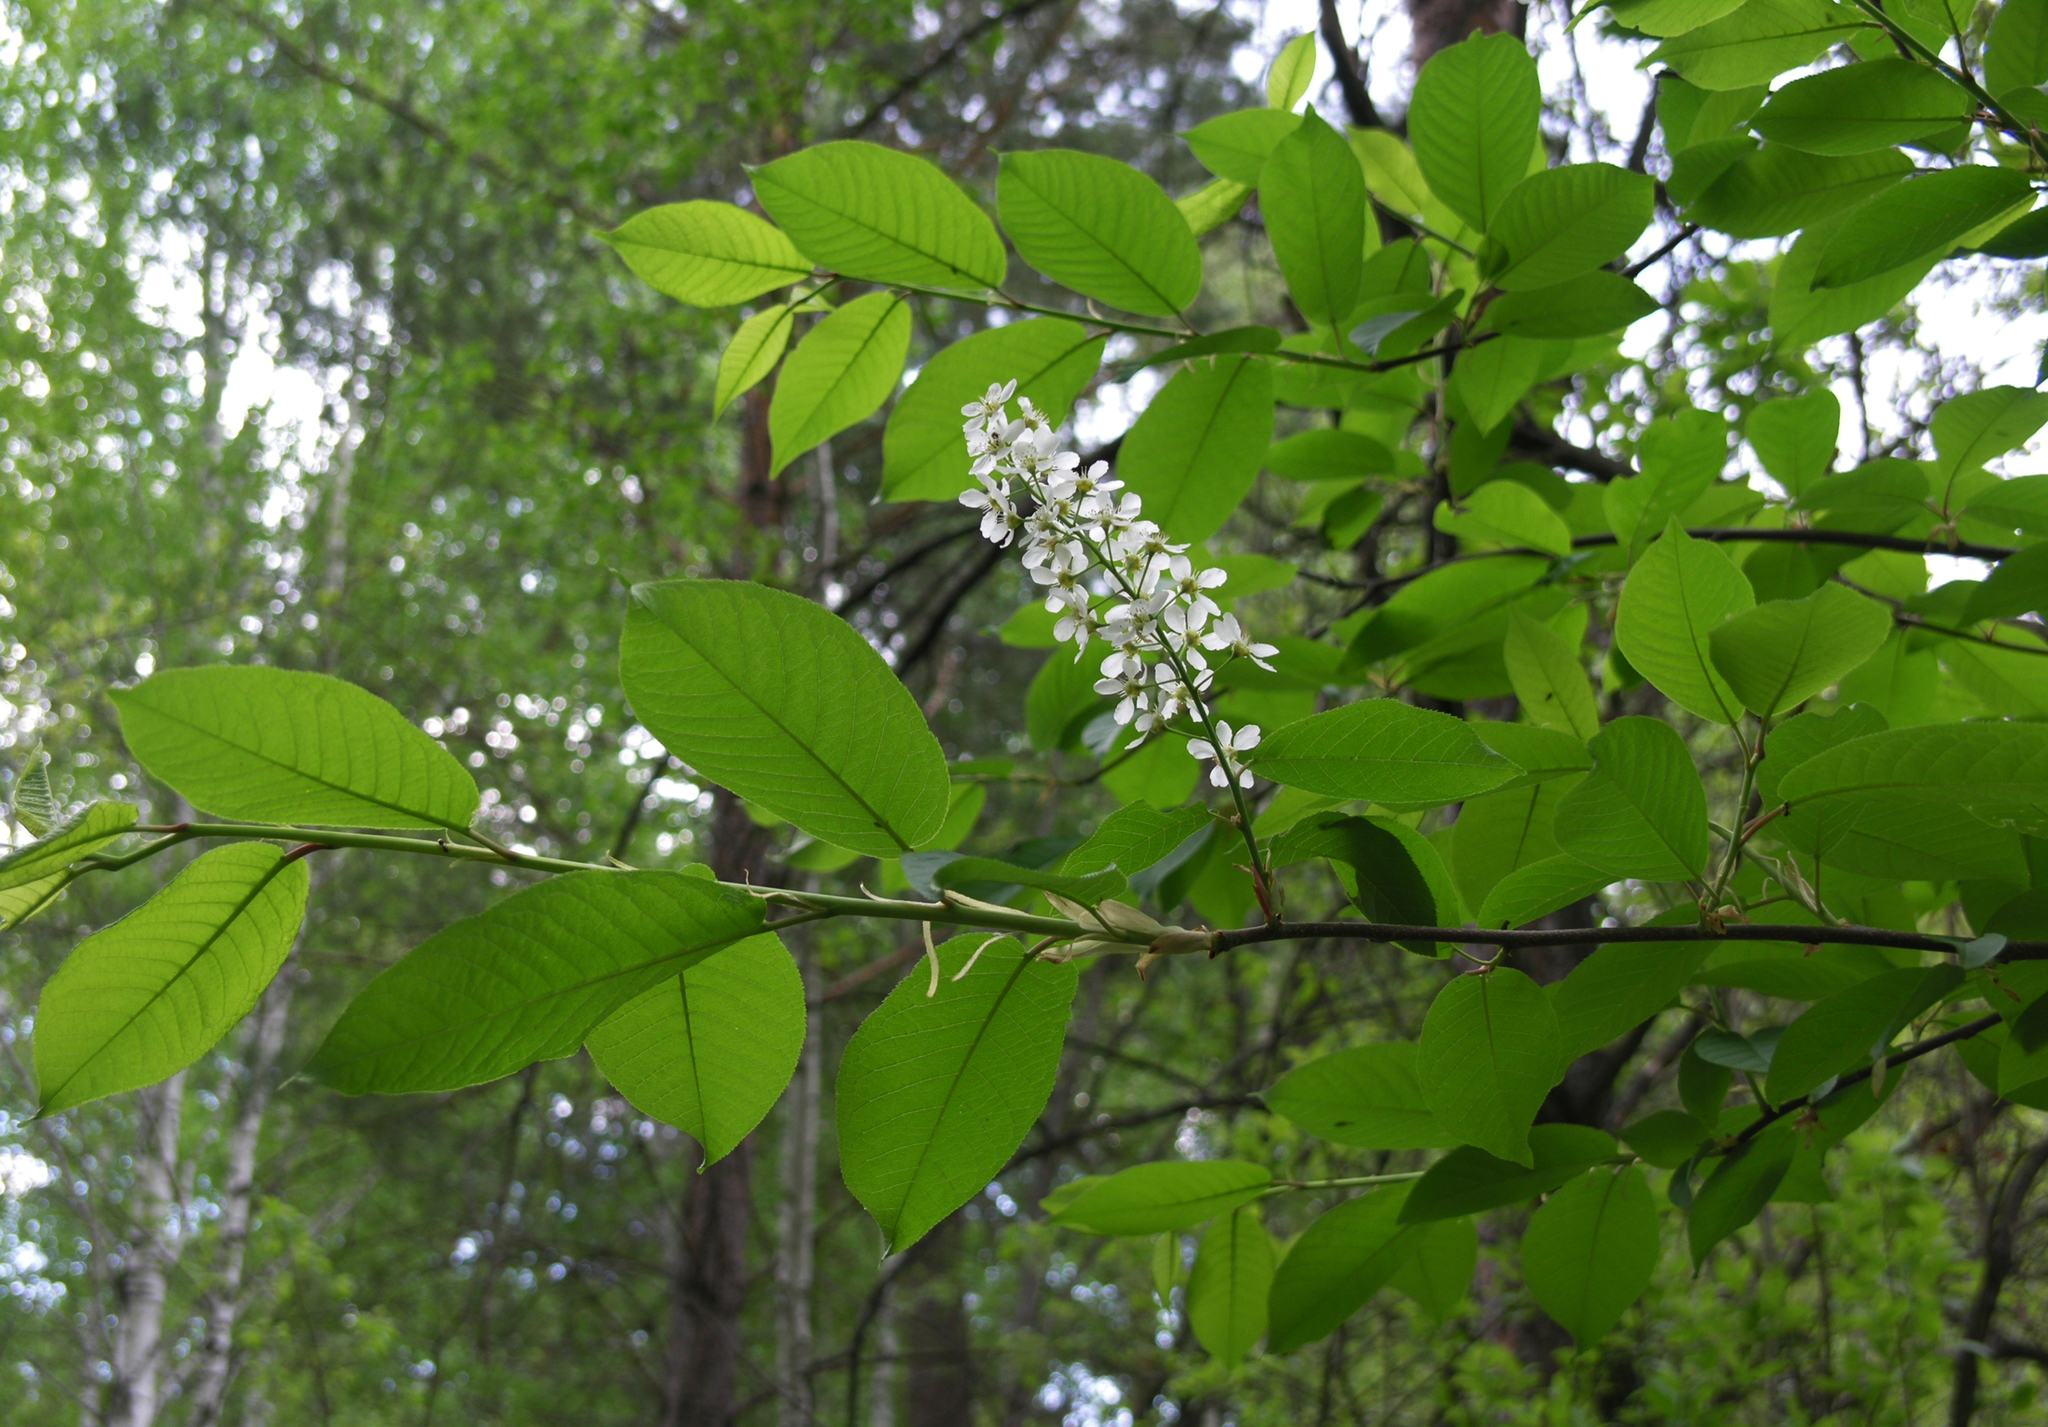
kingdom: Plantae
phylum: Tracheophyta
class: Magnoliopsida
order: Rosales
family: Rosaceae
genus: Prunus
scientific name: Prunus padus
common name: Bird cherry
